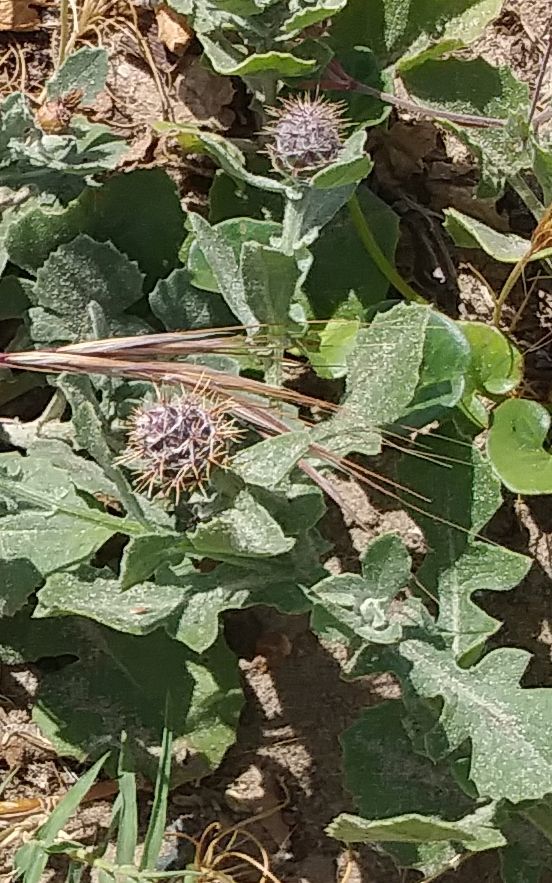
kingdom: Plantae
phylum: Tracheophyta
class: Magnoliopsida
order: Asterales
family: Asteraceae
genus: Centaurea
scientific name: Centaurea sphaerocephala
